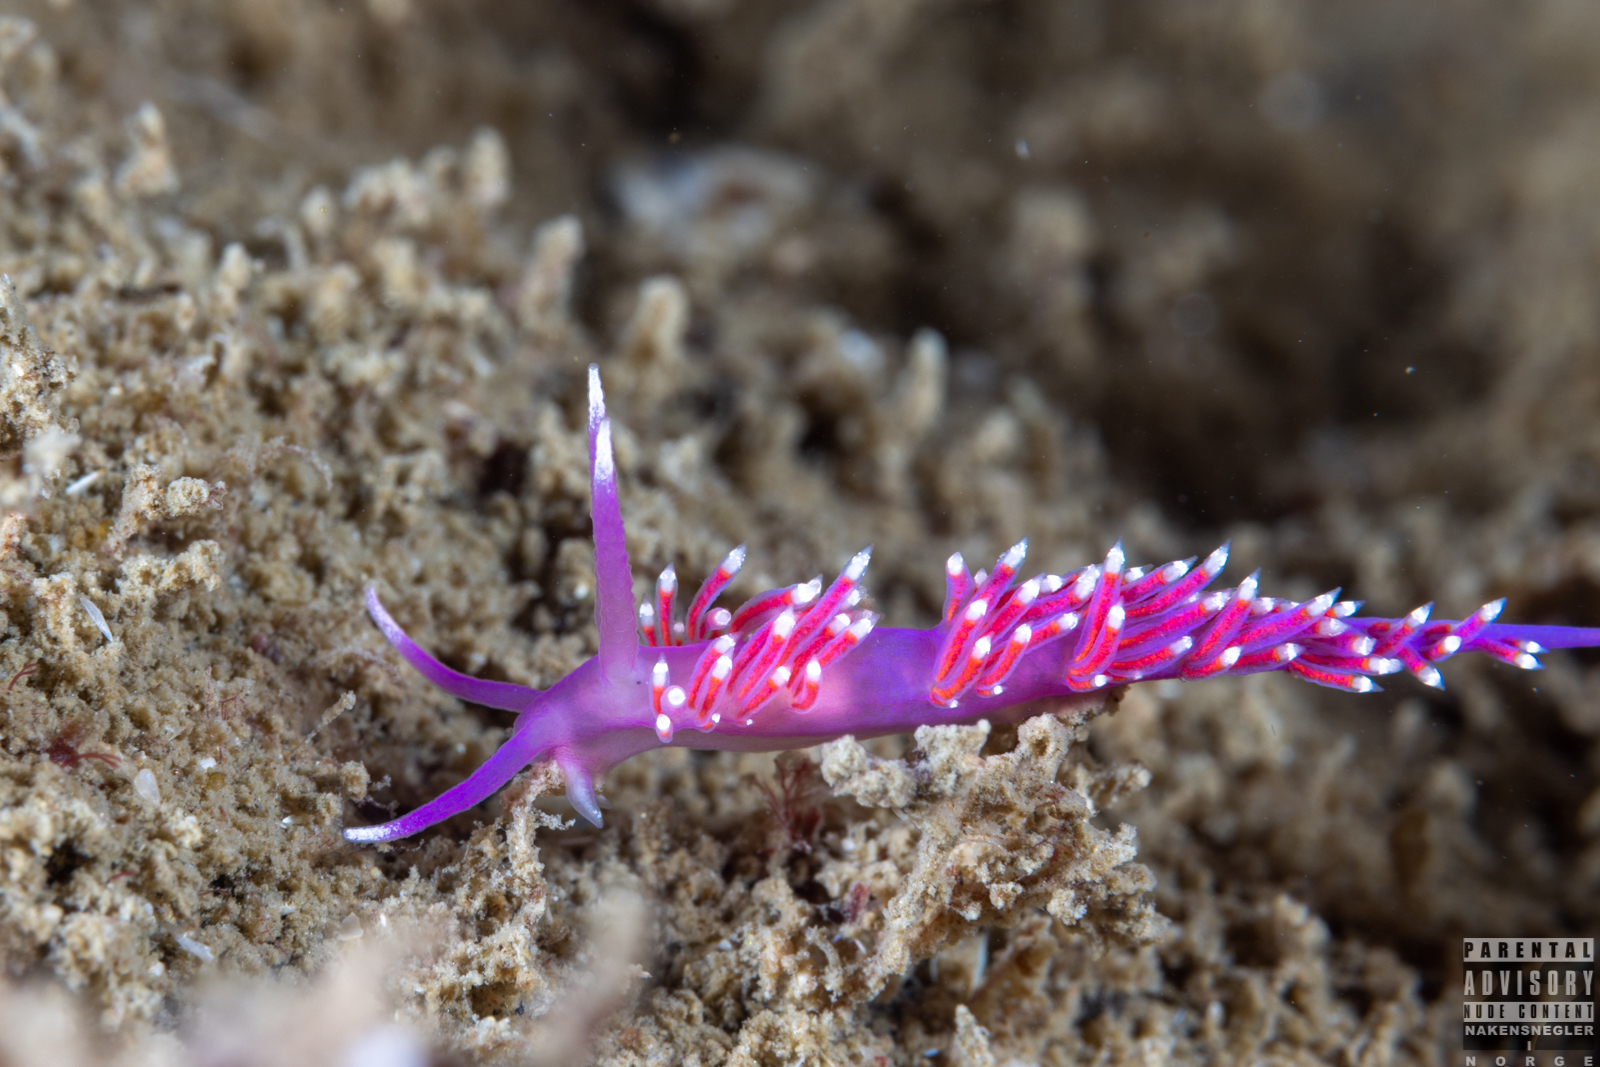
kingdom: Animalia
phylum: Mollusca
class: Gastropoda
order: Nudibranchia
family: Flabellinidae
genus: Edmundsella
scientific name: Edmundsella pedata
